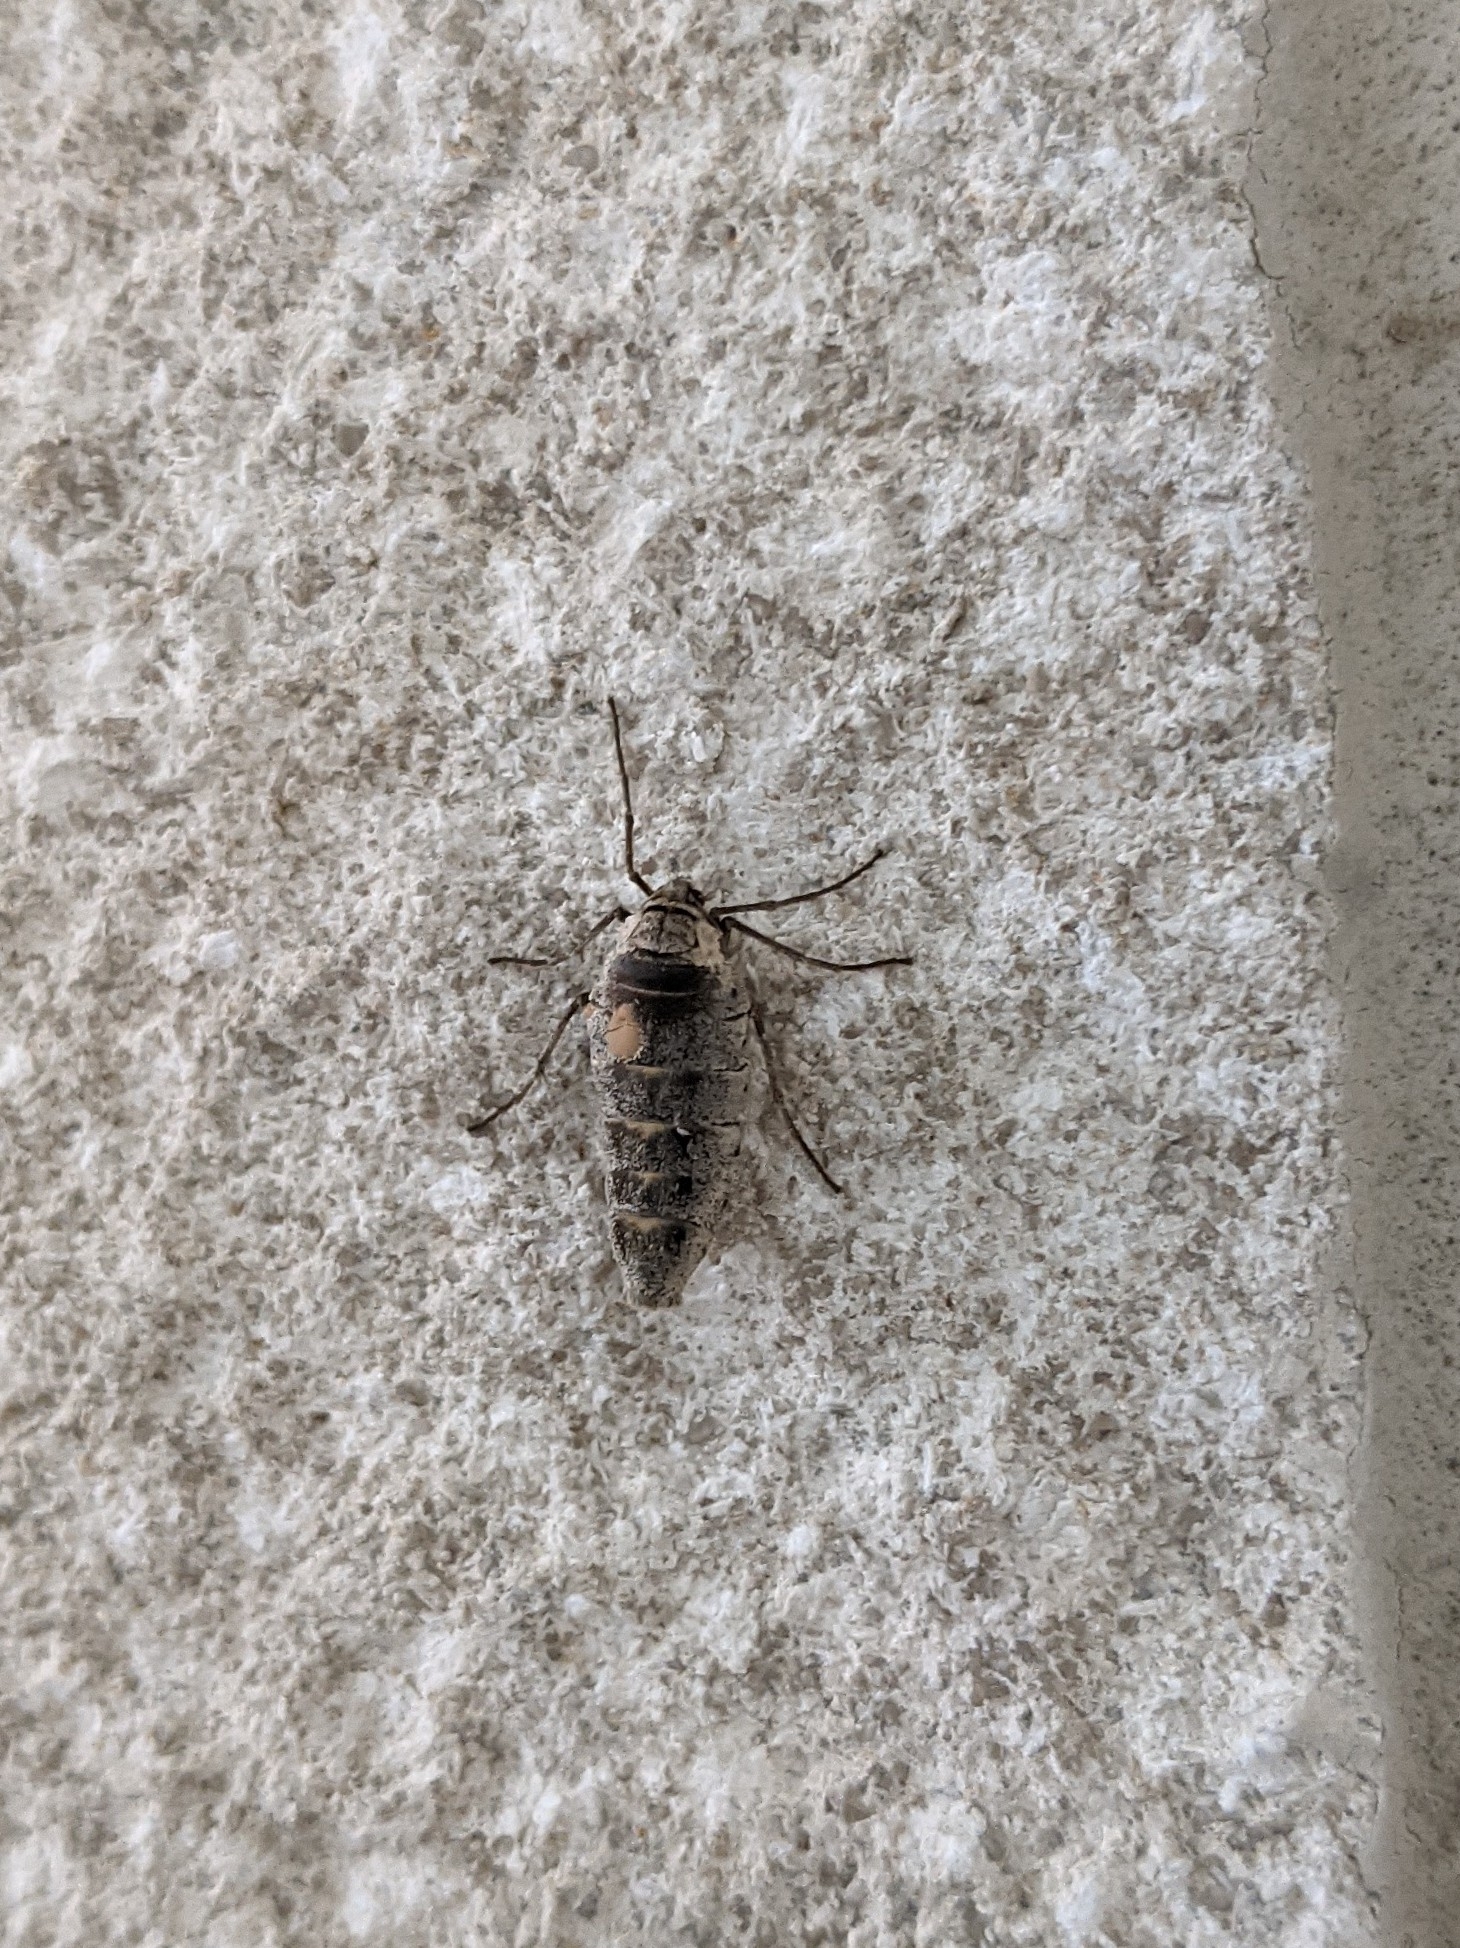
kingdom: Animalia
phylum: Arthropoda
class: Insecta
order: Lepidoptera
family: Geometridae
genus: Alsophila
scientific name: Alsophila pometaria
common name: Fall cankerworm
